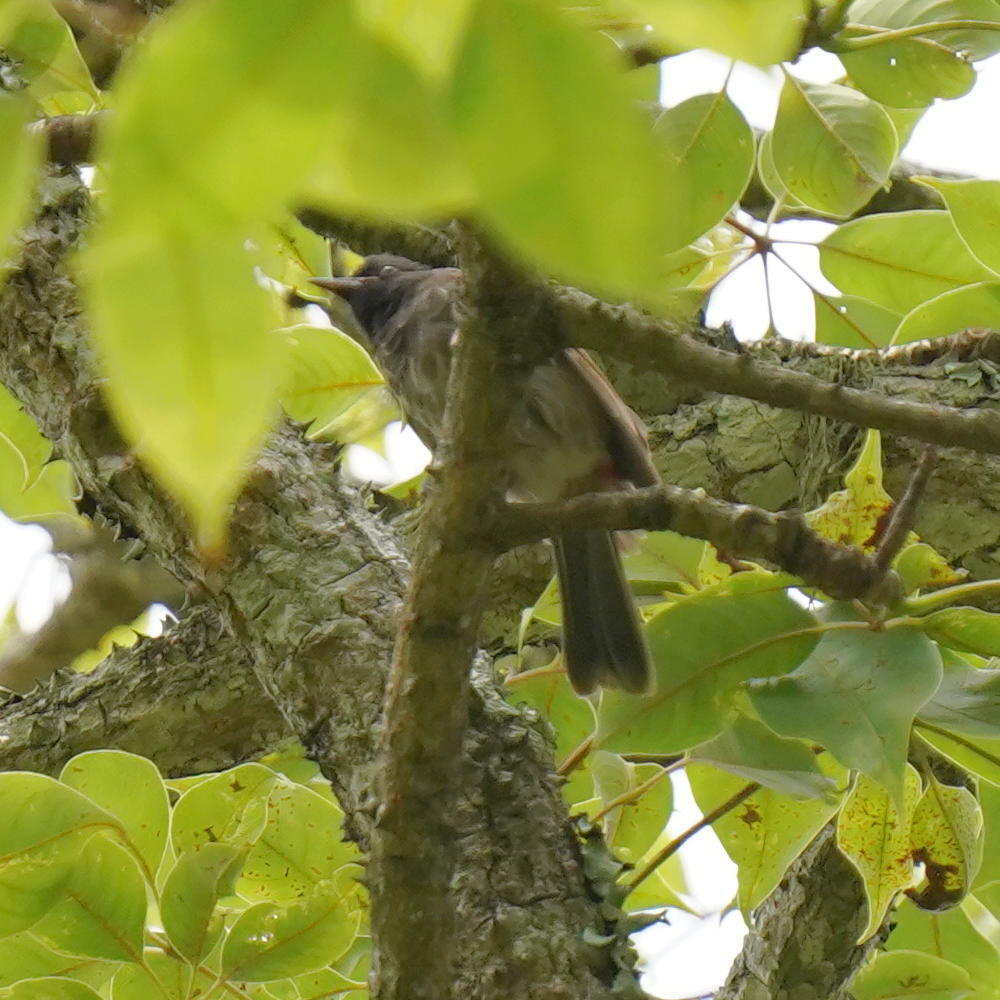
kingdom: Animalia
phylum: Chordata
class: Aves
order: Passeriformes
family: Pycnonotidae
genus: Pycnonotus
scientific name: Pycnonotus cafer
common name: Red-vented bulbul
